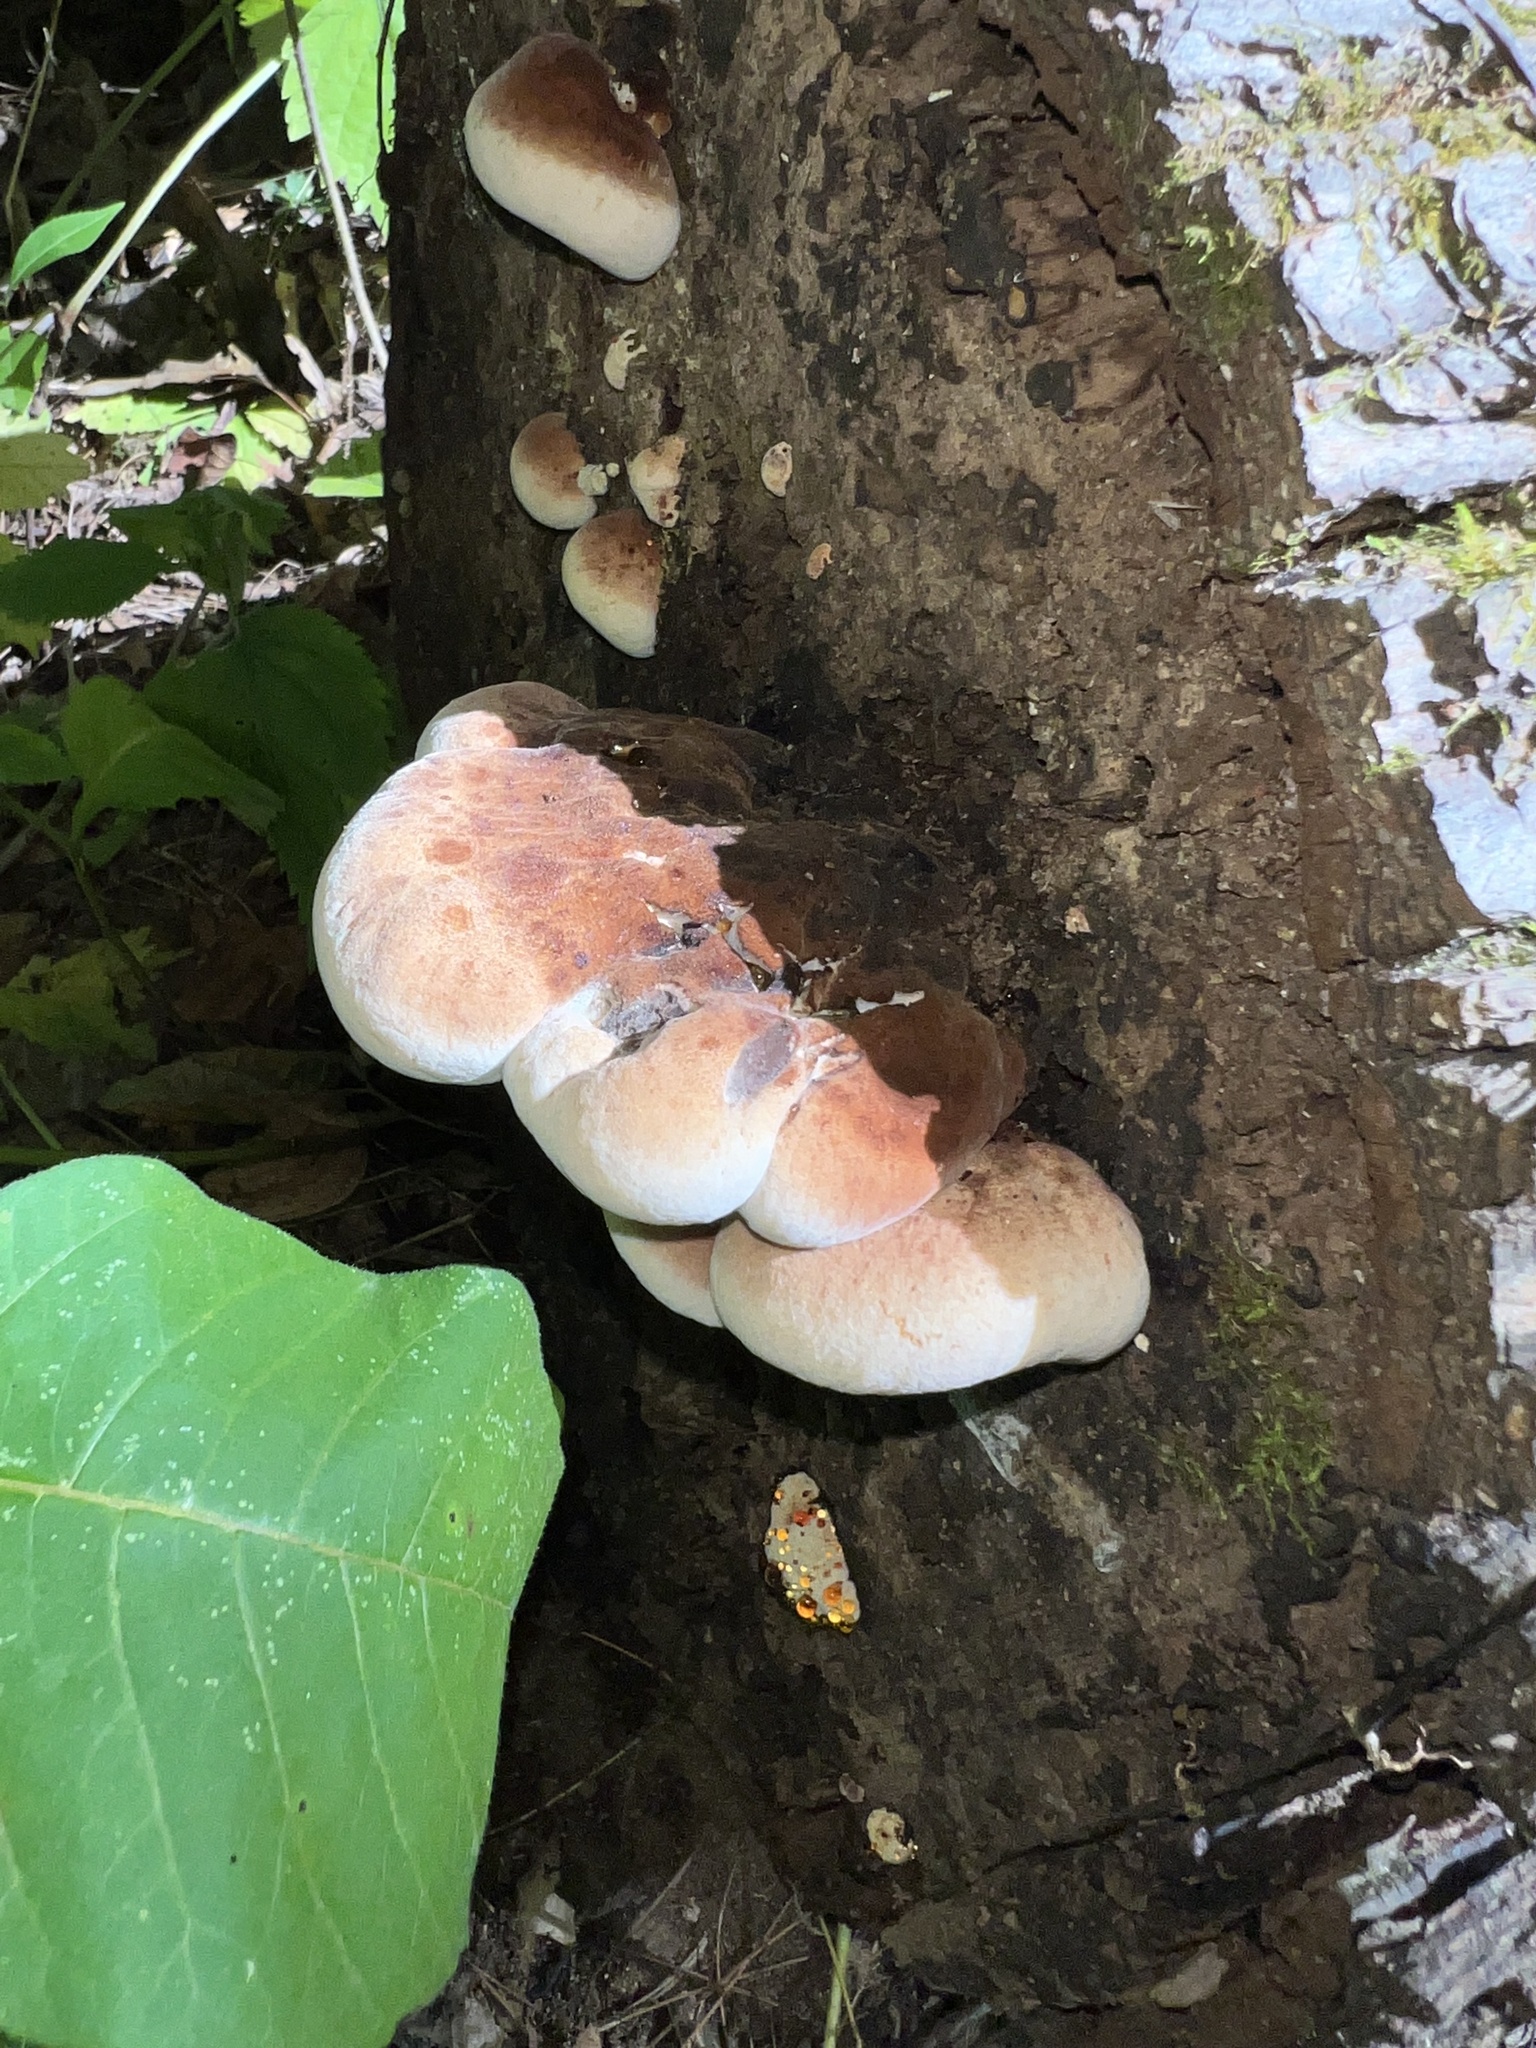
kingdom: Fungi
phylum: Basidiomycota
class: Agaricomycetes
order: Polyporales
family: Ischnodermataceae
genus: Ischnoderma
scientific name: Ischnoderma resinosum
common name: Resinous polypore
